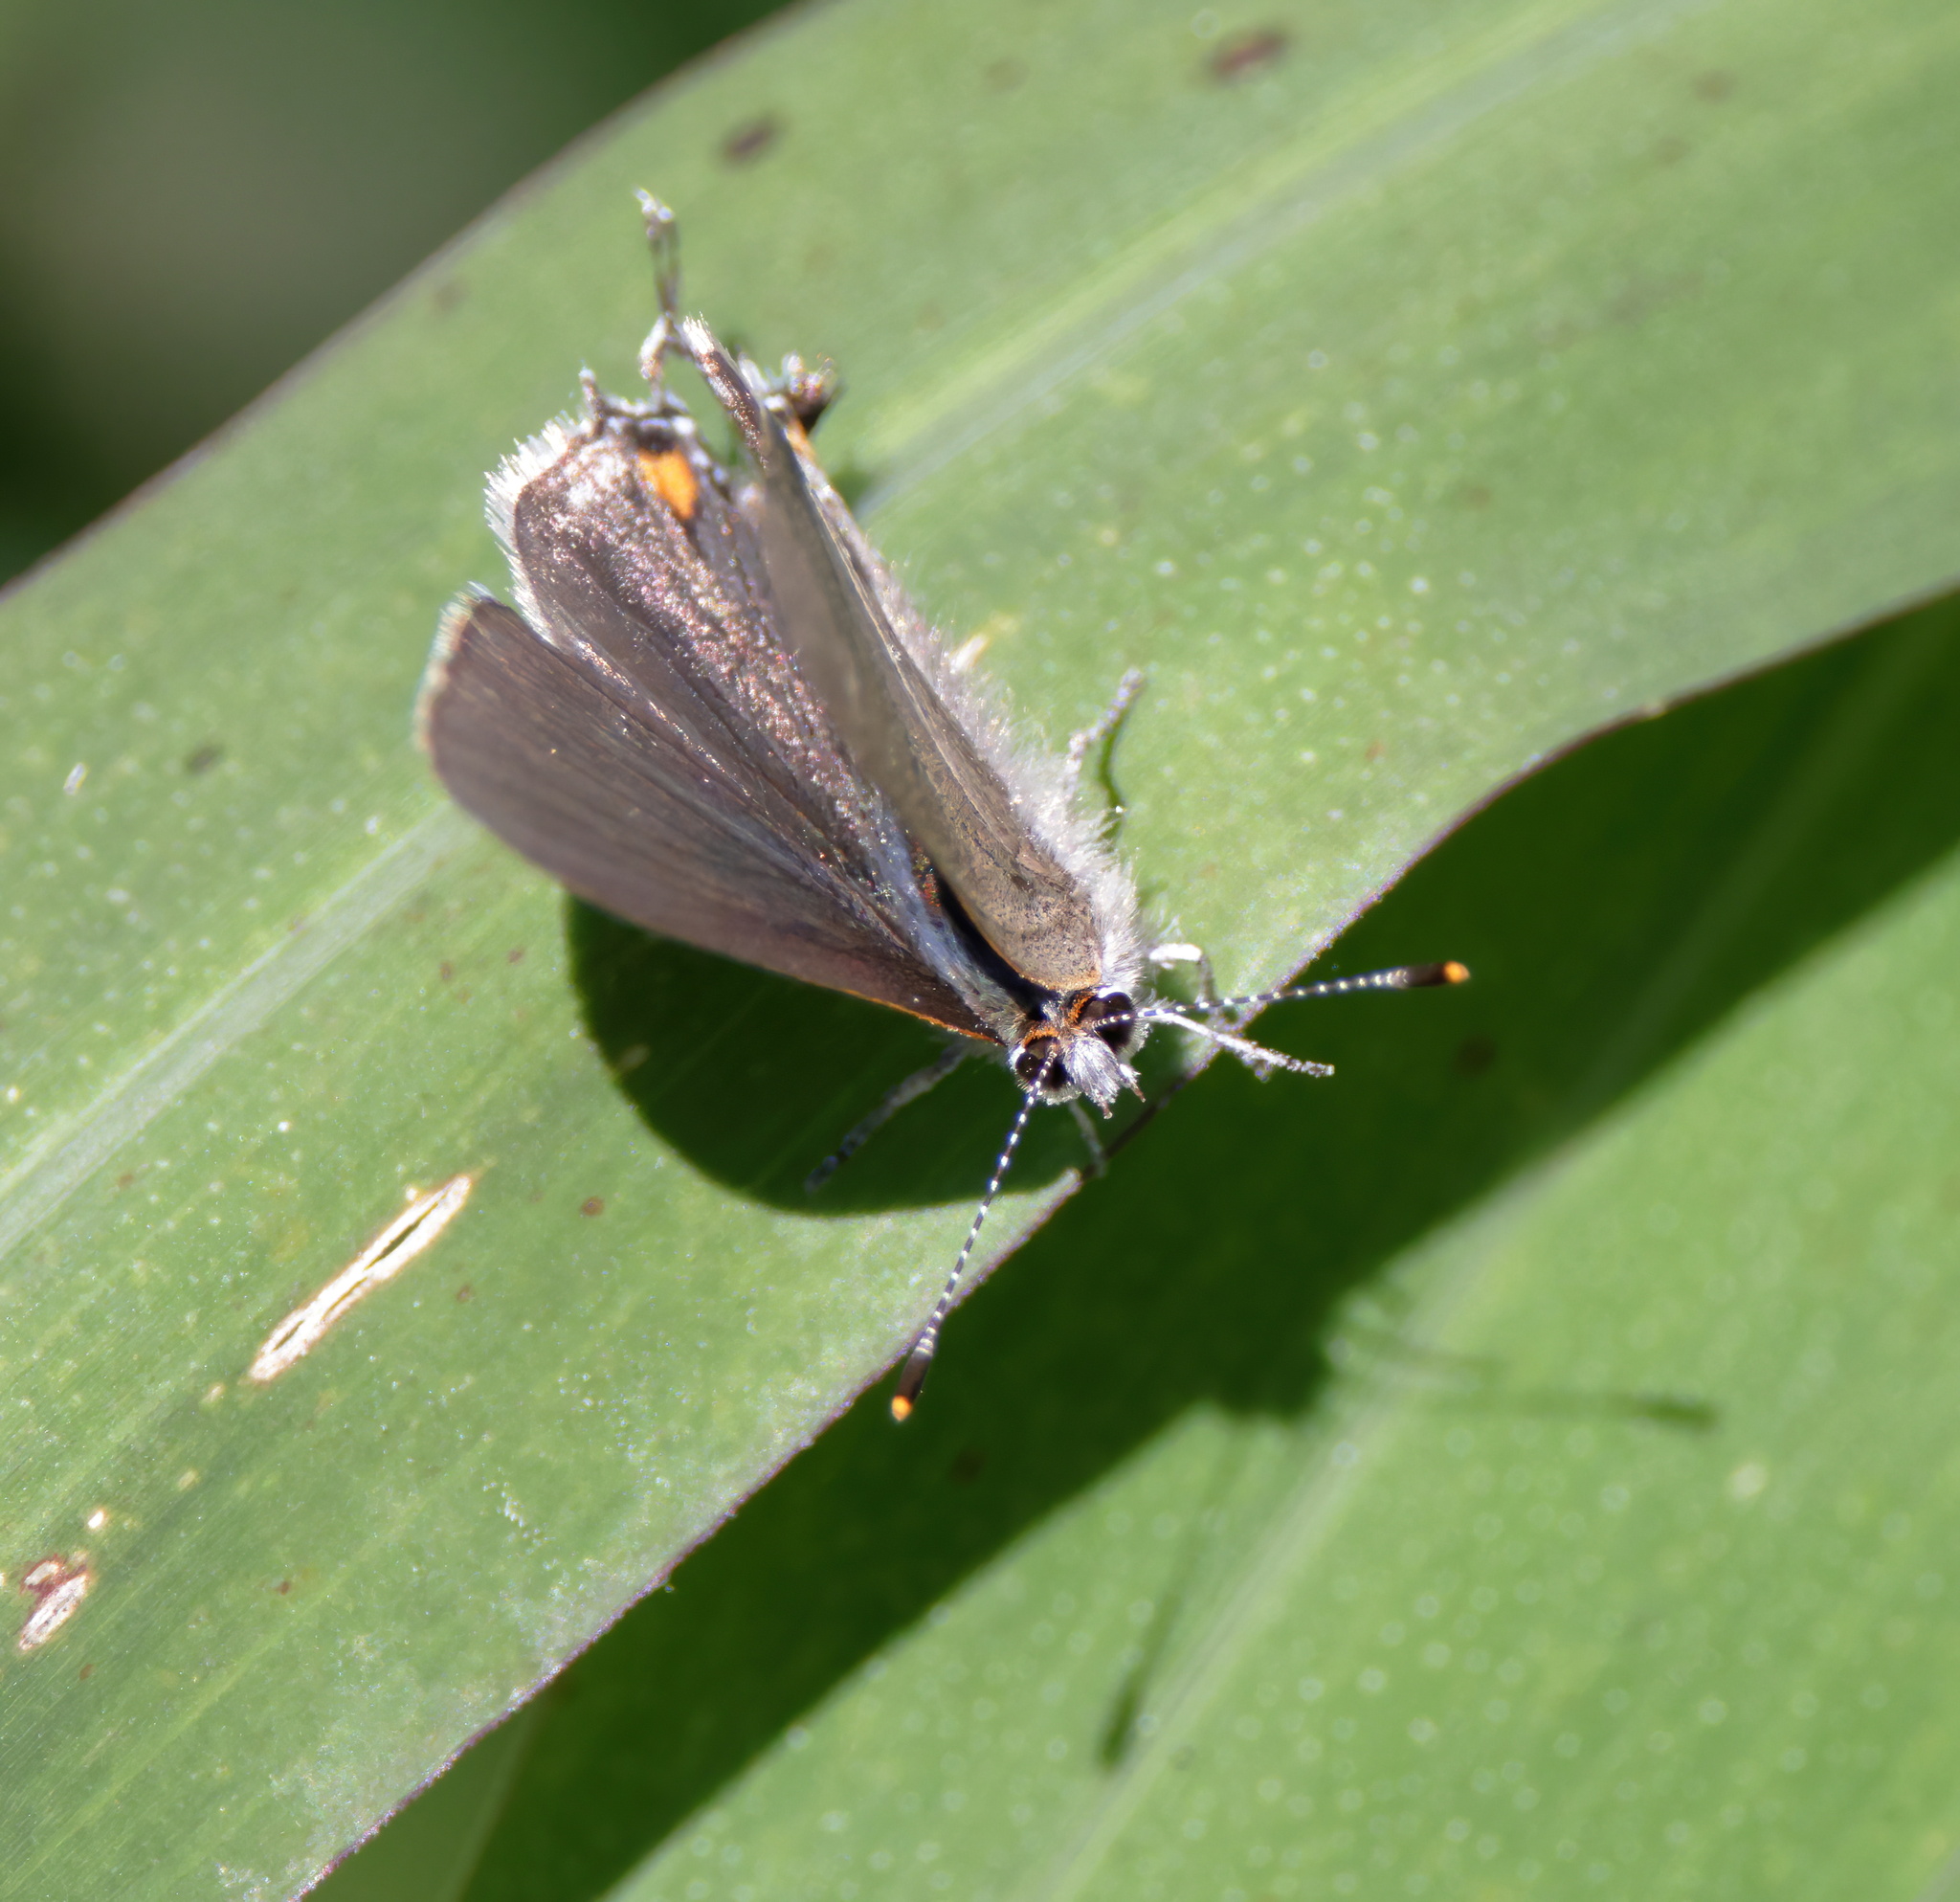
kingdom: Animalia
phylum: Arthropoda
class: Insecta
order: Lepidoptera
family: Lycaenidae
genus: Strymon
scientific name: Strymon melinus
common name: Gray hairstreak
